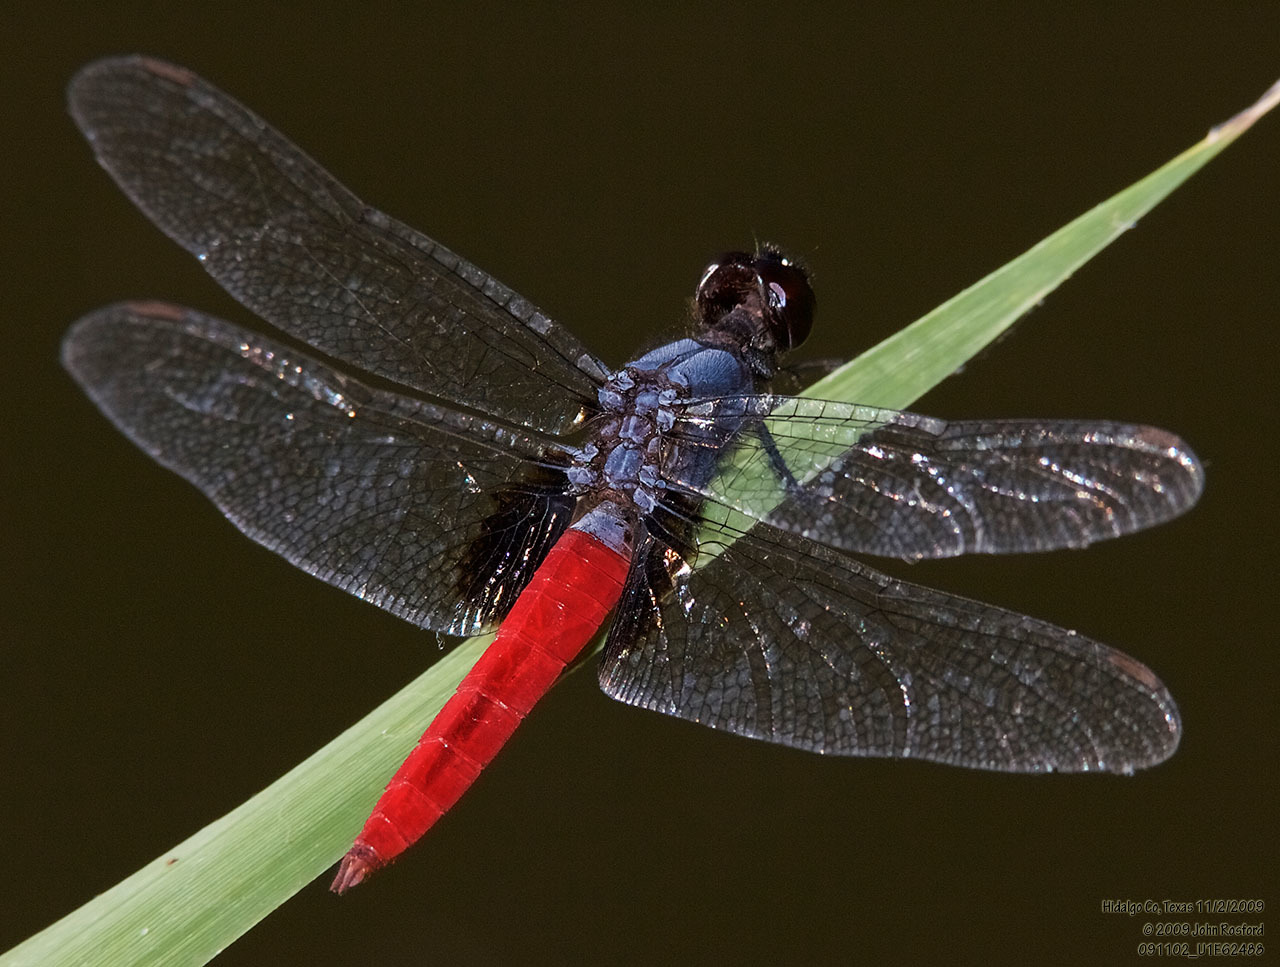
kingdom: Animalia
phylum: Arthropoda
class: Insecta
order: Odonata
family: Libellulidae
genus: Planiplax
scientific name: Planiplax sanguiniventris
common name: Mexican scarlet-tail
